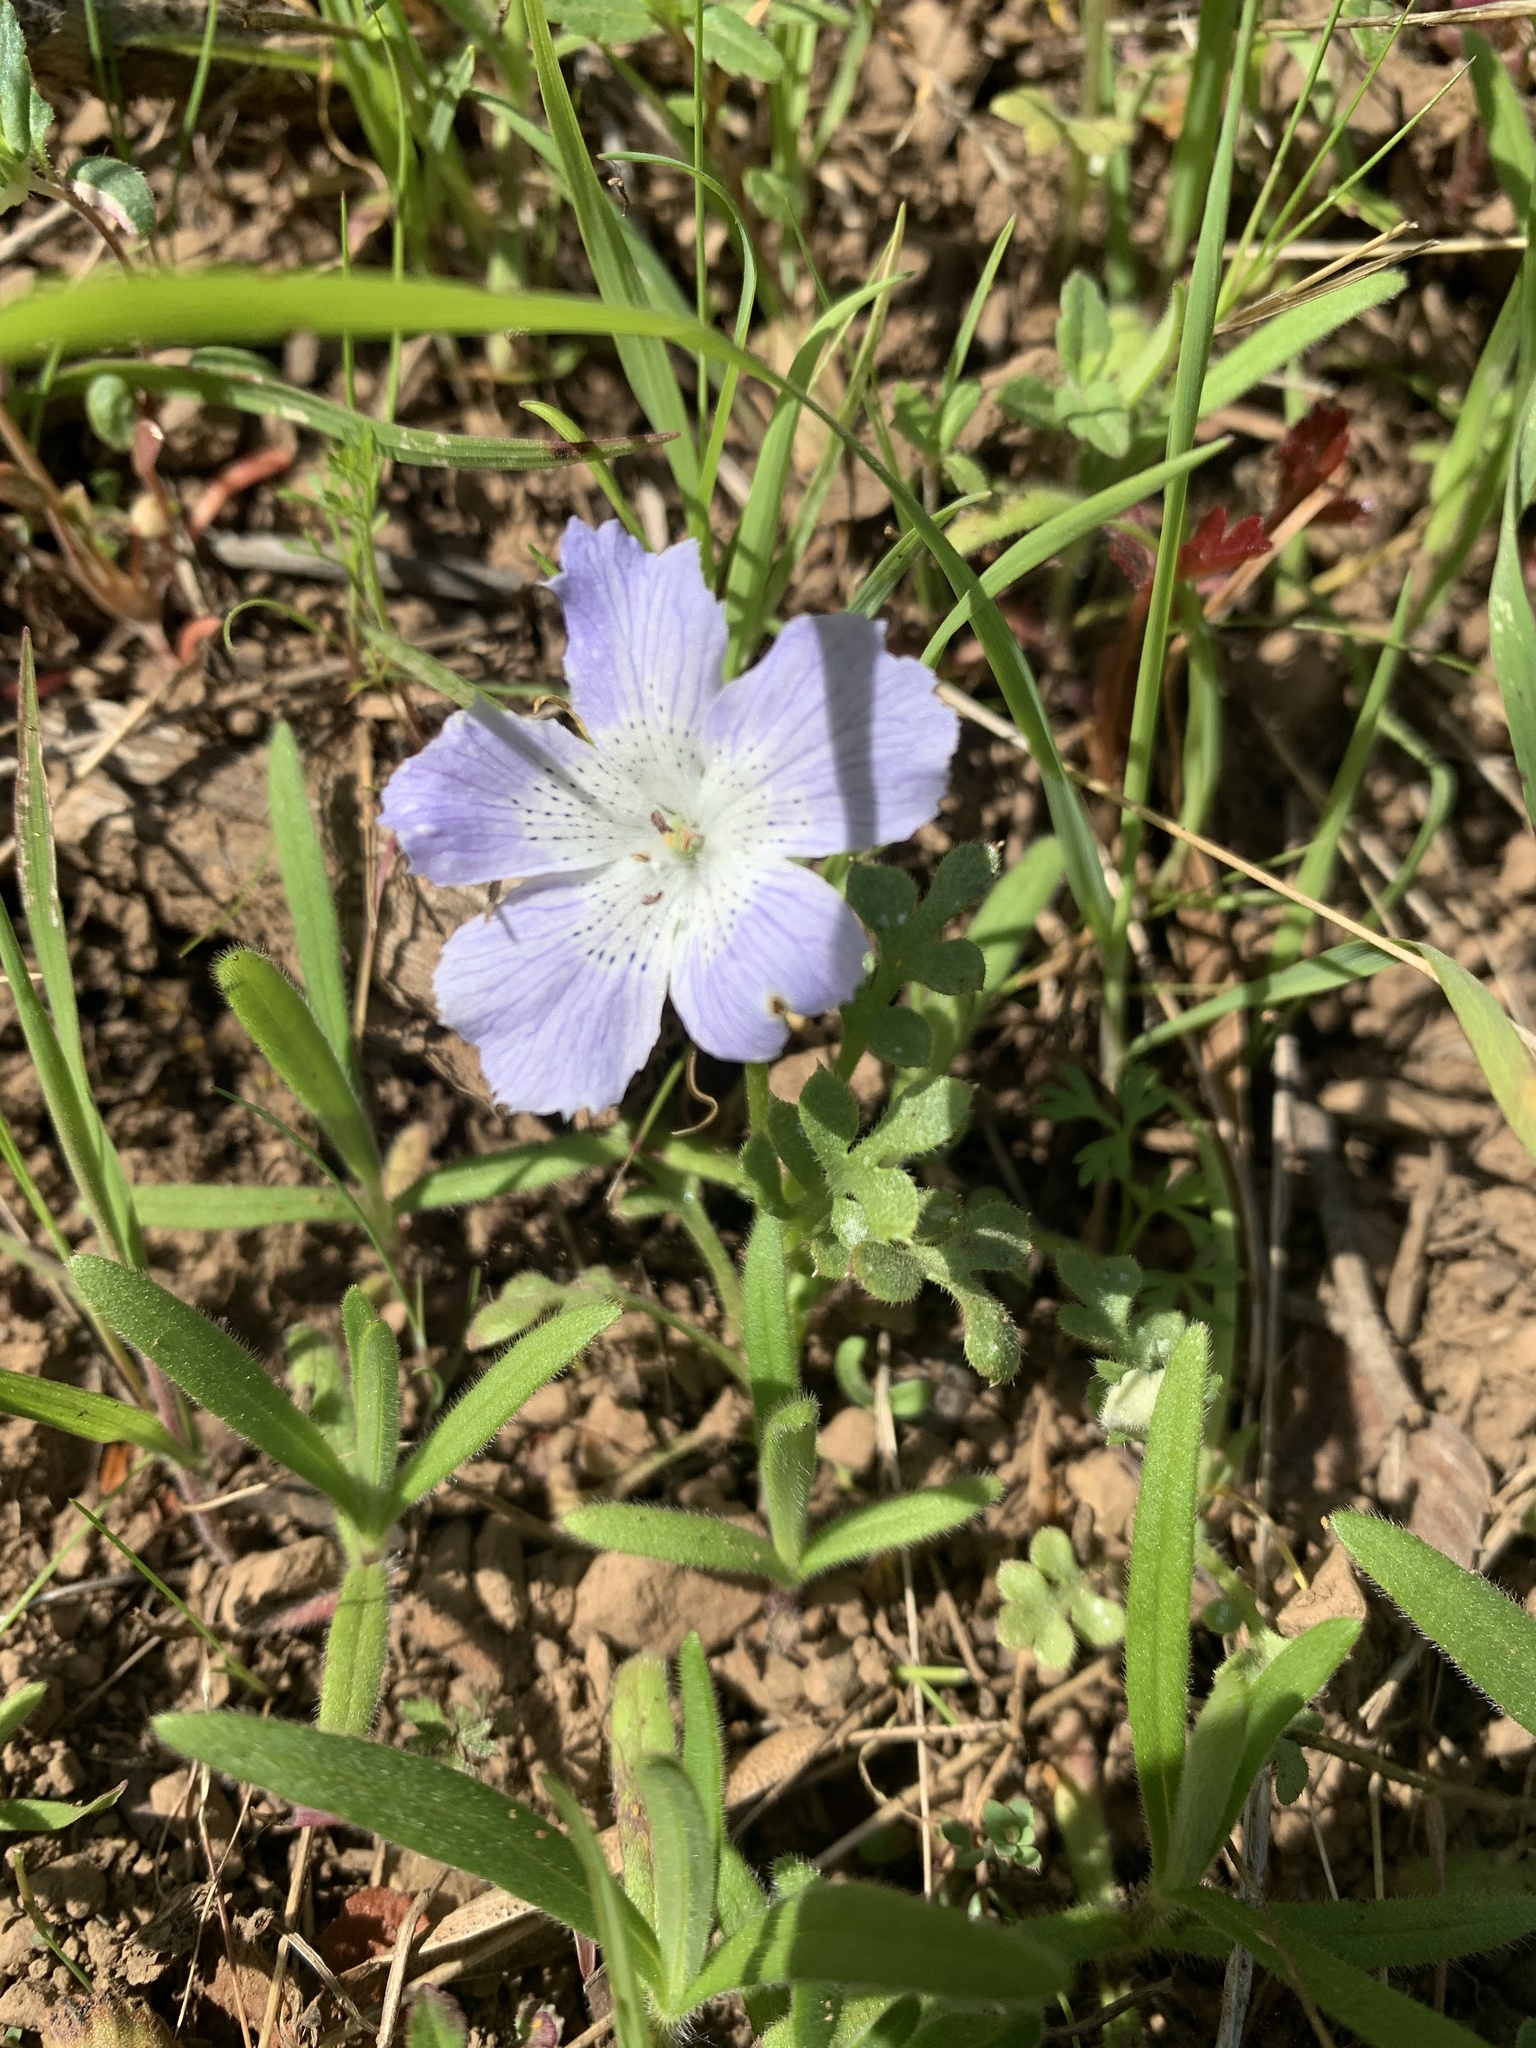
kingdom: Plantae
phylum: Tracheophyta
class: Magnoliopsida
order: Boraginales
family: Hydrophyllaceae
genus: Nemophila
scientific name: Nemophila menziesii
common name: Baby's-blue-eyes
